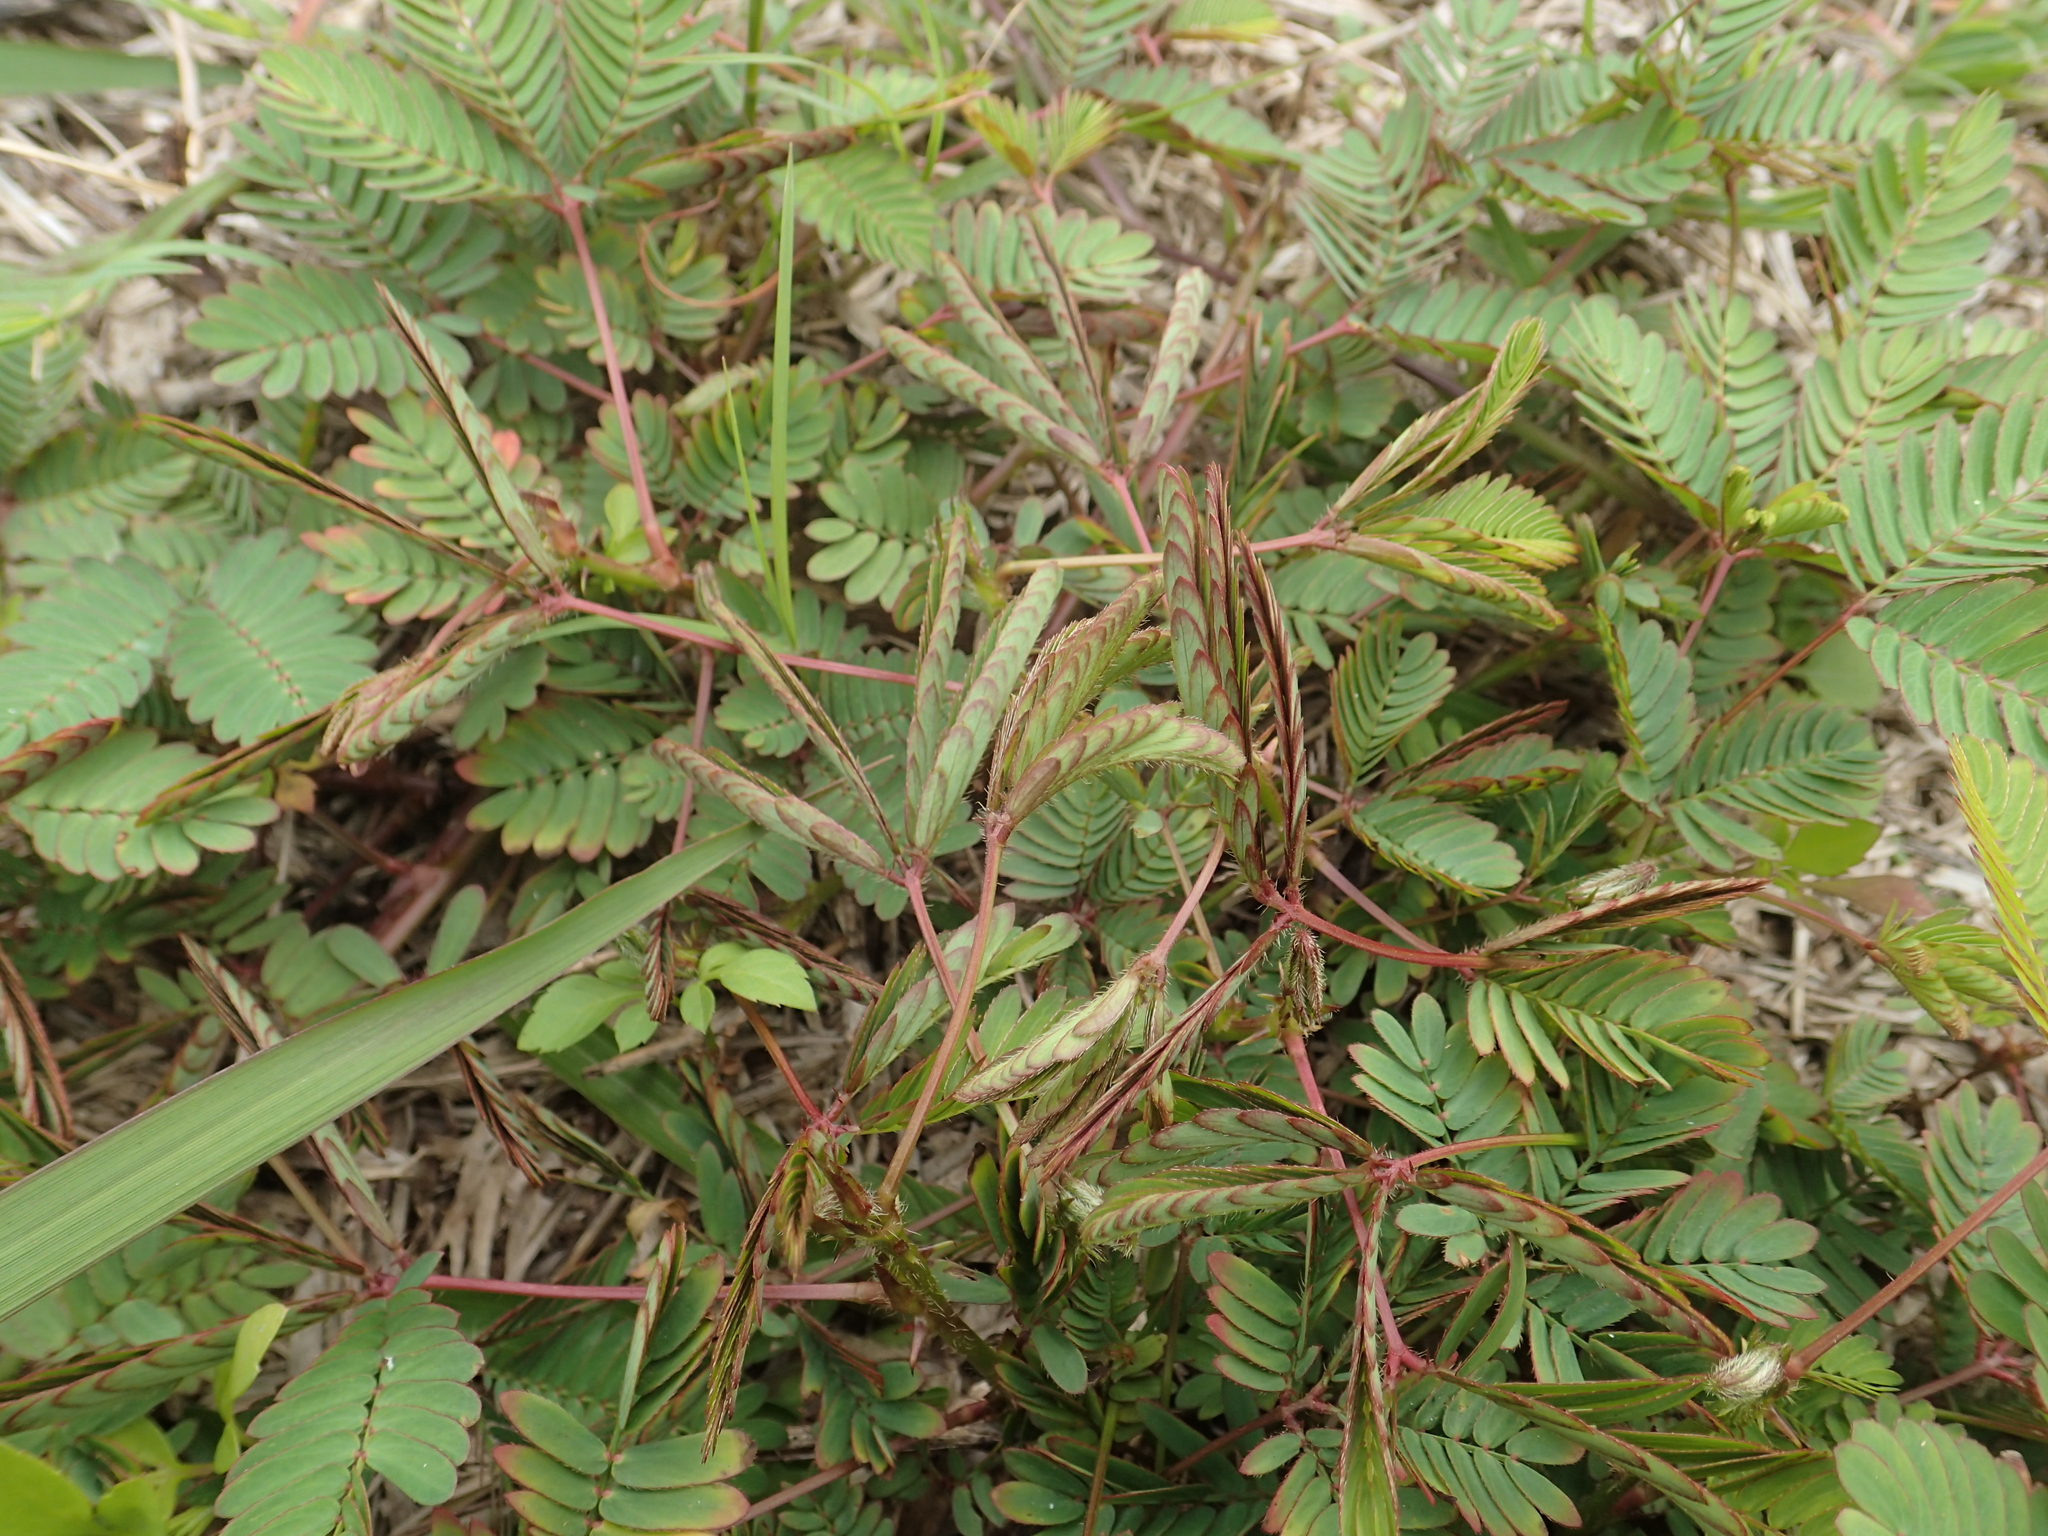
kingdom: Plantae
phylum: Tracheophyta
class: Magnoliopsida
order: Fabales
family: Fabaceae
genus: Mimosa
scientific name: Mimosa pudica
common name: Sensitive plant
